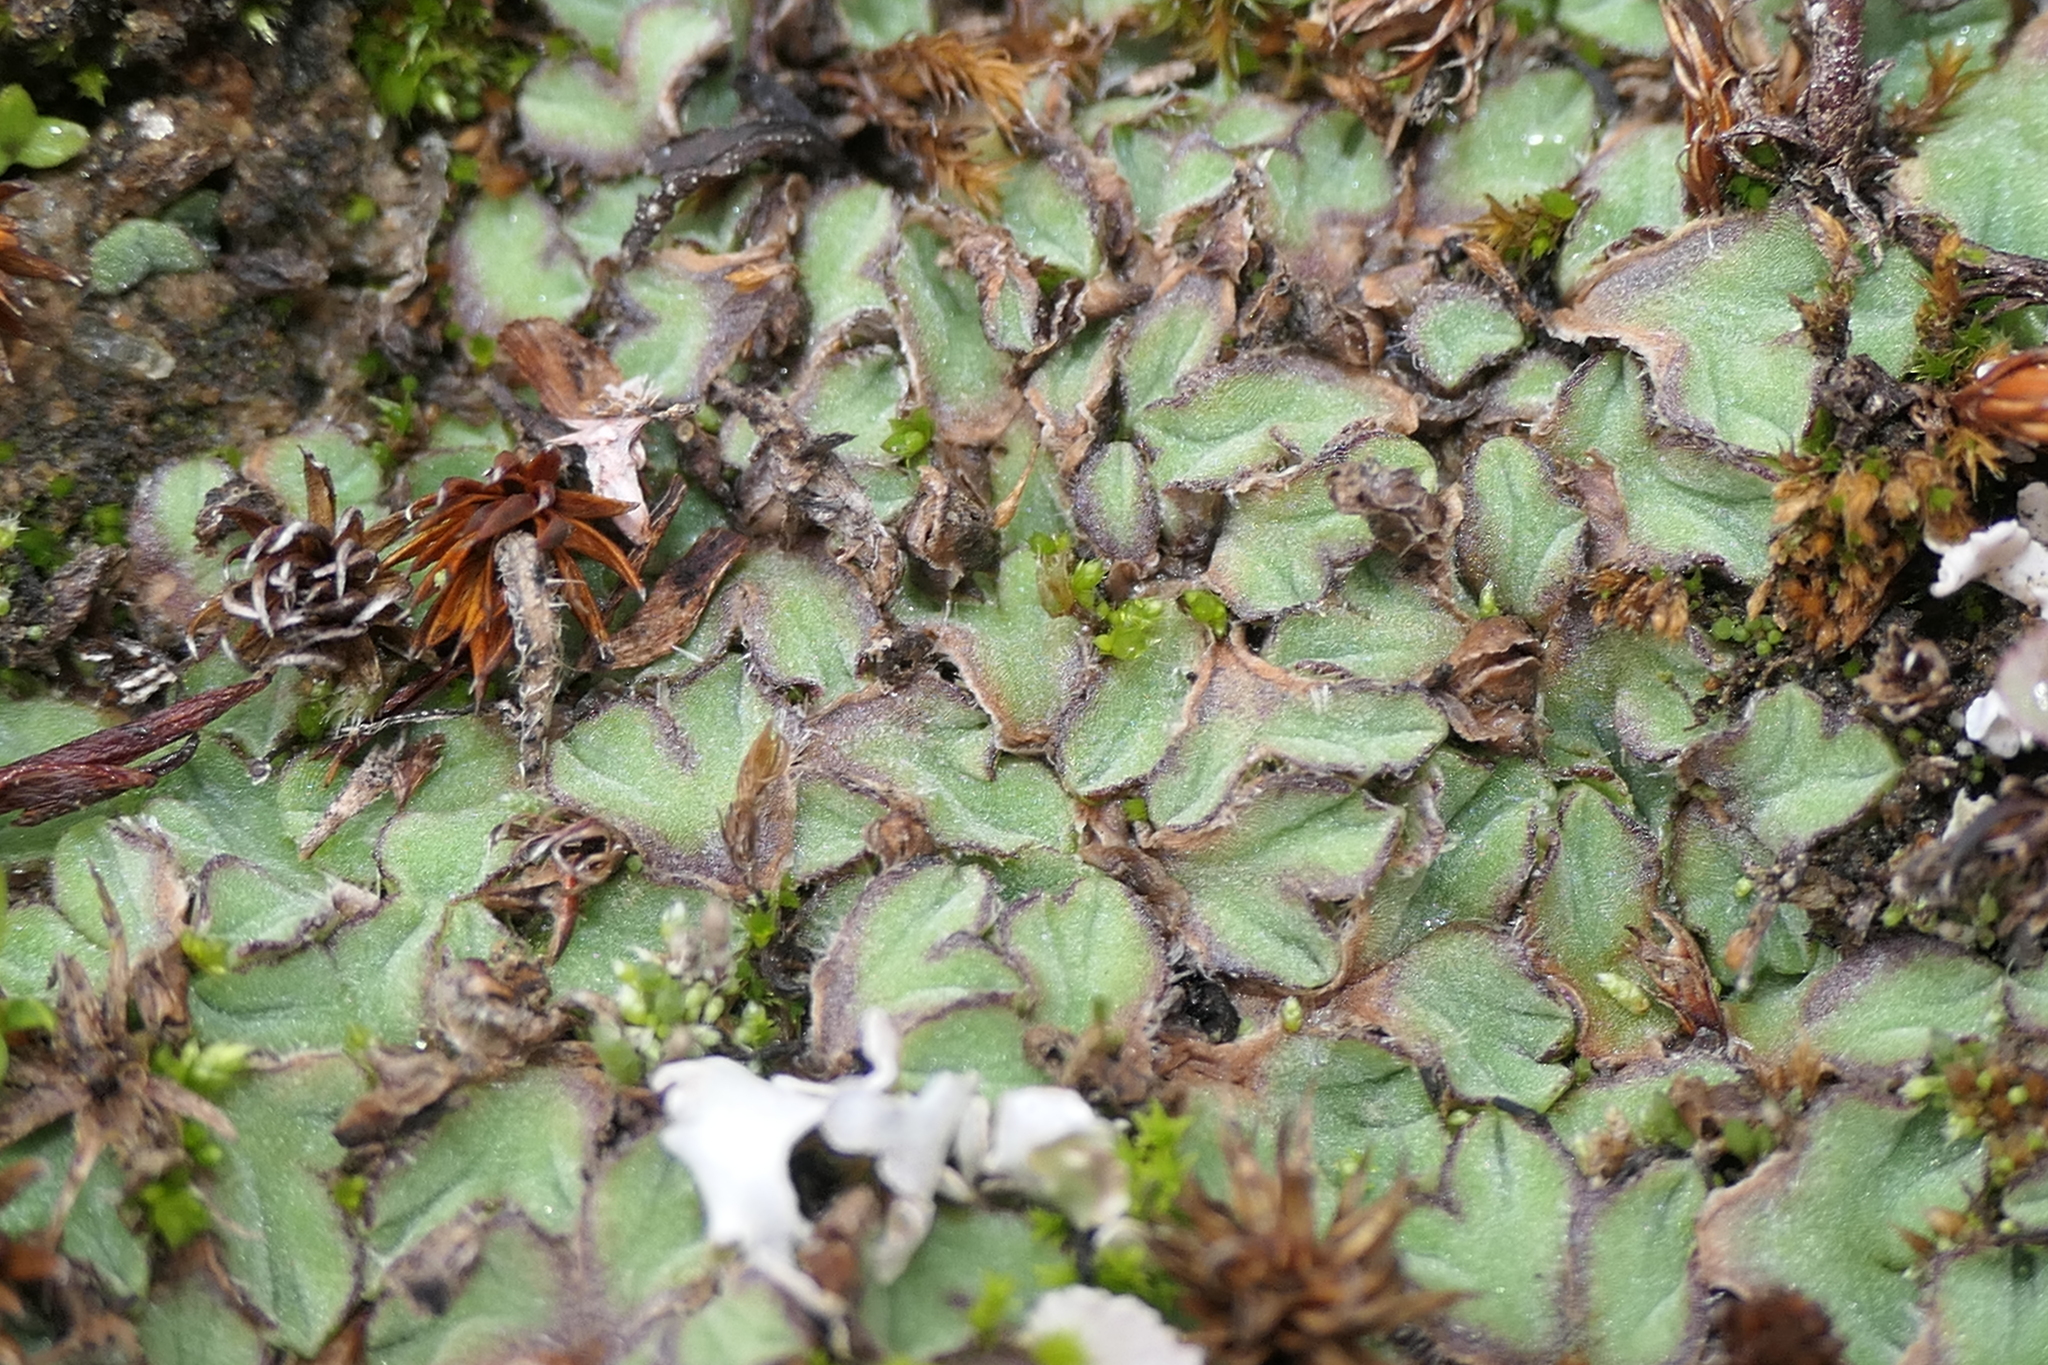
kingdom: Plantae
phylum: Marchantiophyta
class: Marchantiopsida
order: Marchantiales
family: Ricciaceae
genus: Riccia
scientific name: Riccia ciliifera
